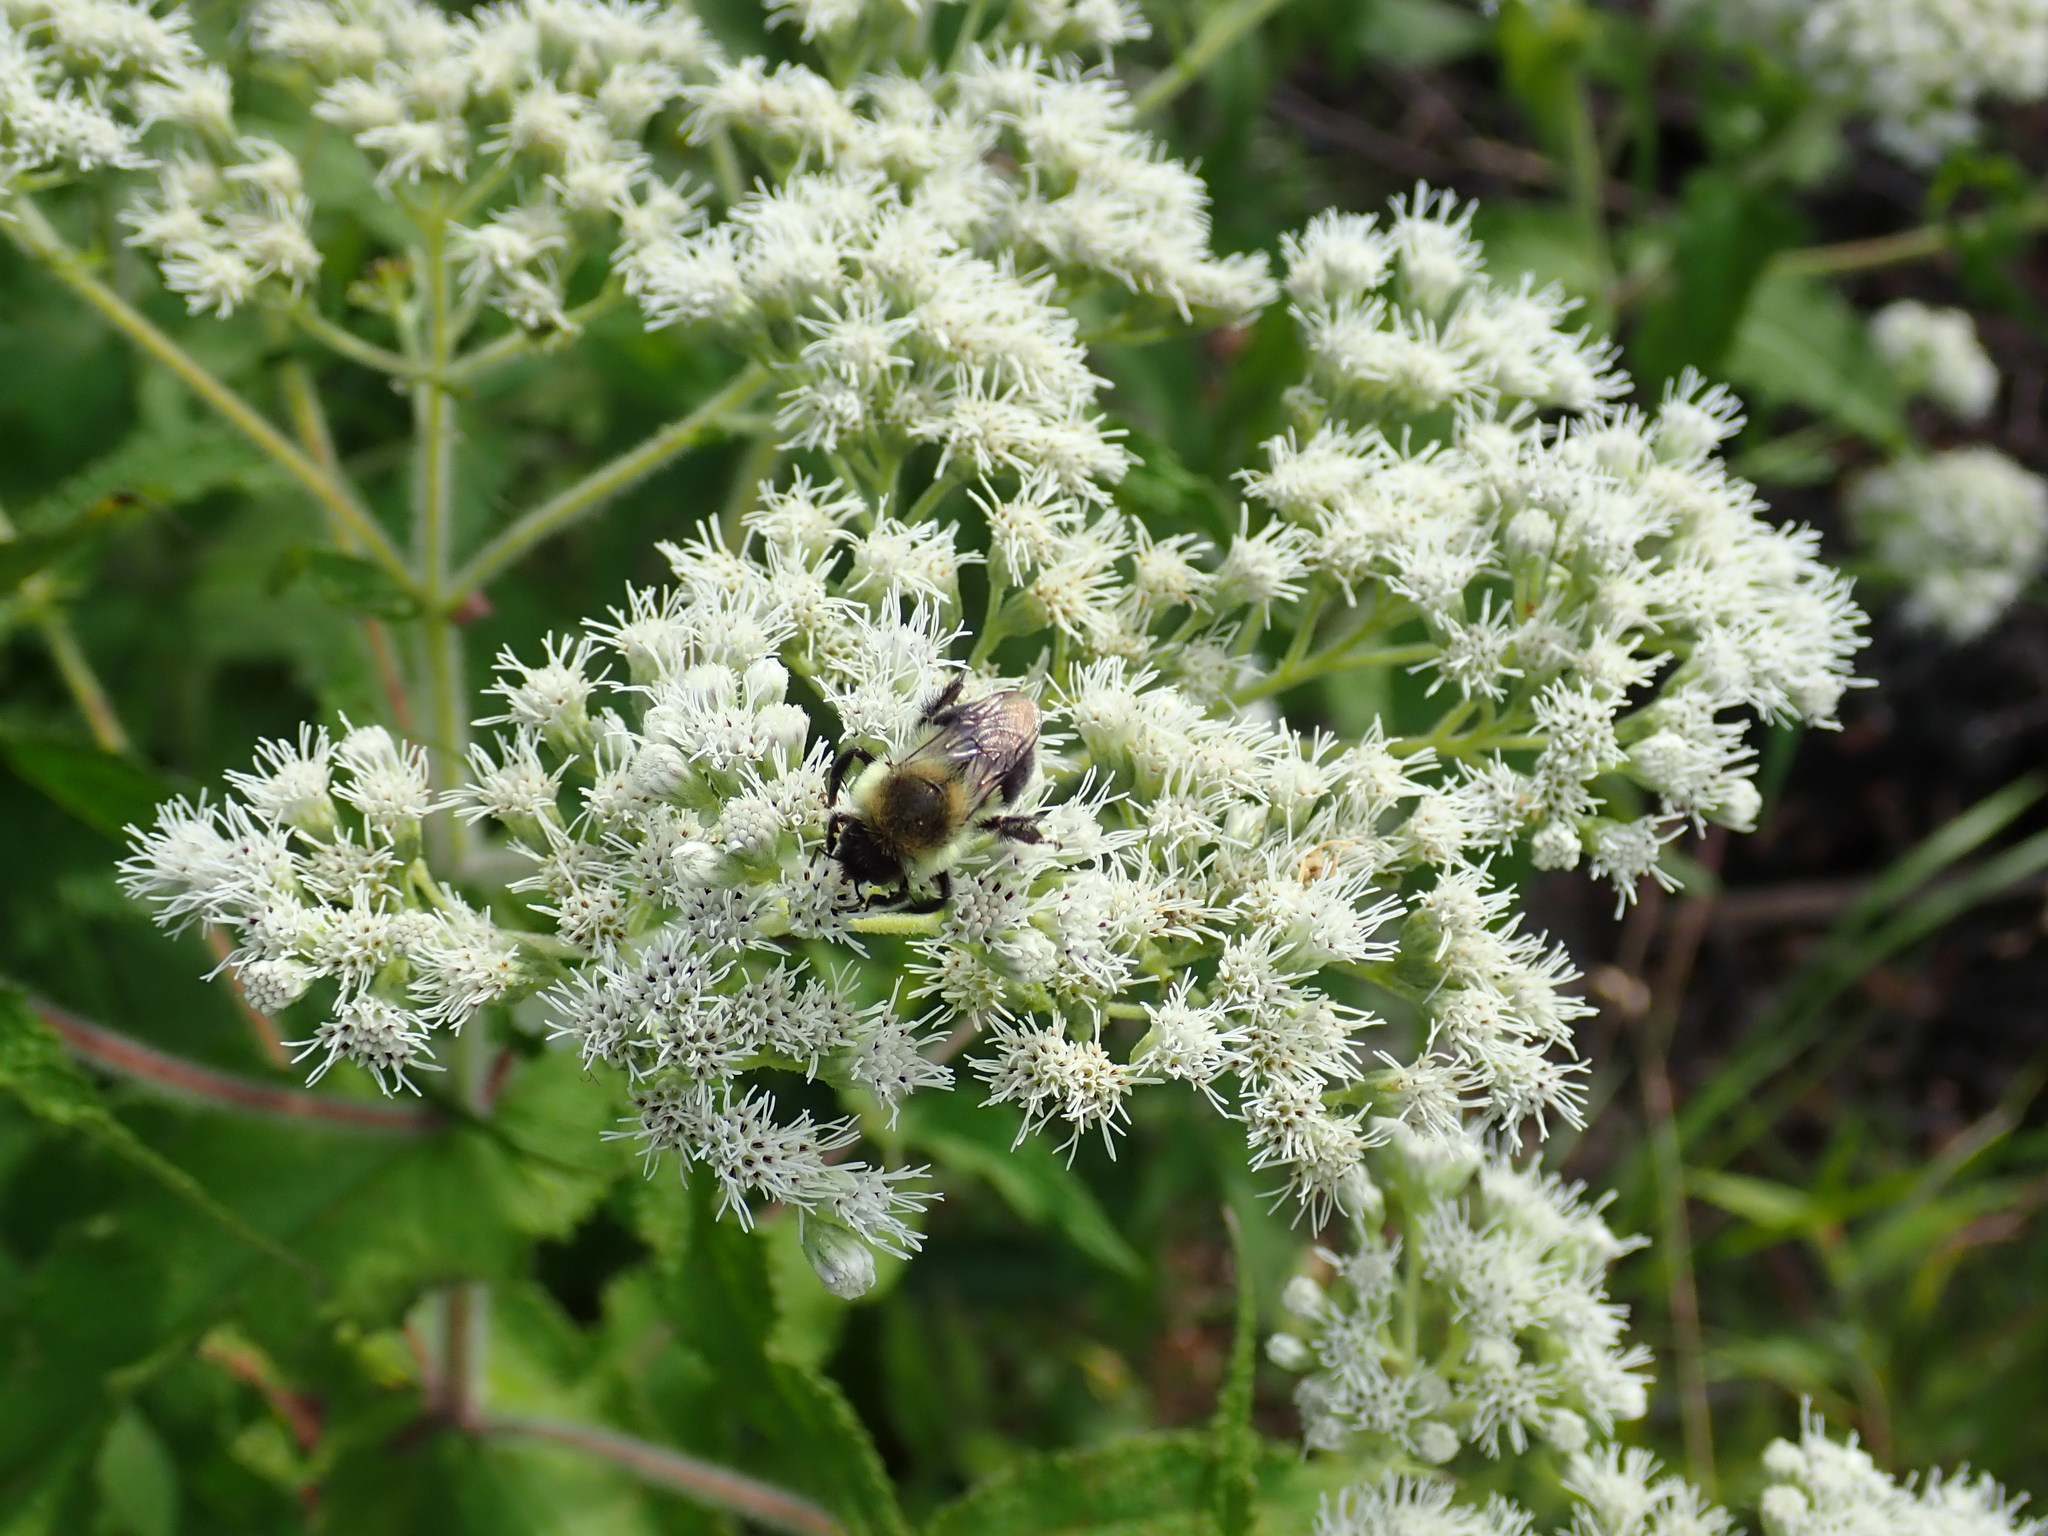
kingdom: Animalia
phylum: Arthropoda
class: Insecta
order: Hymenoptera
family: Apidae
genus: Bombus
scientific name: Bombus impatiens
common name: Common eastern bumble bee
